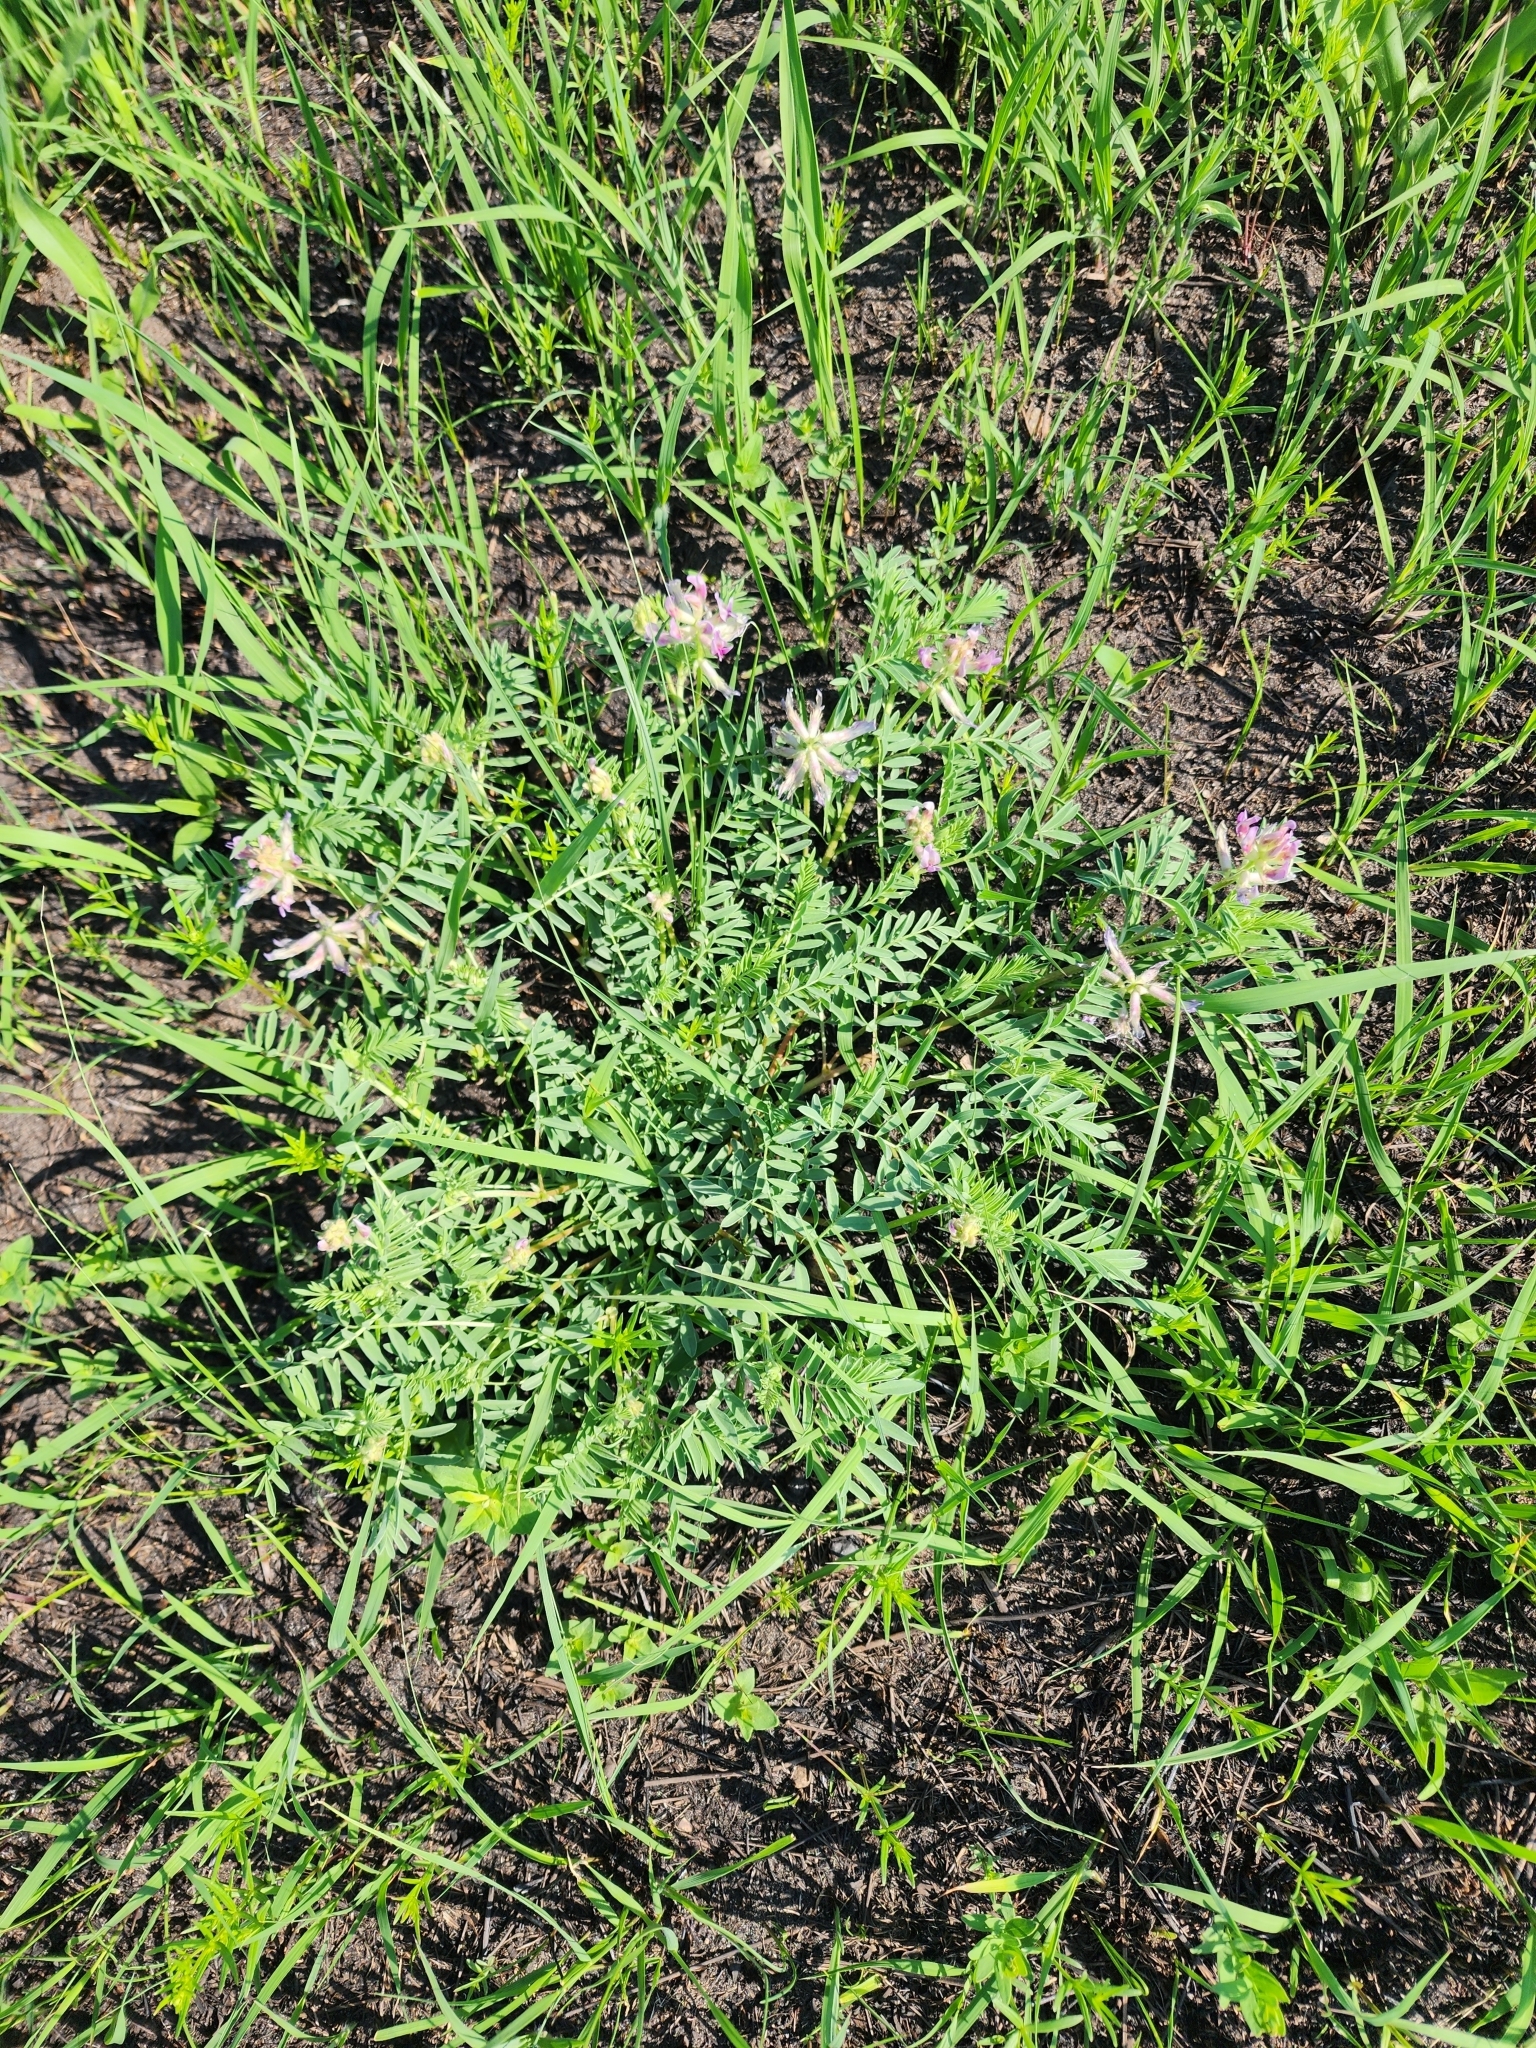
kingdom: Plantae
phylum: Tracheophyta
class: Magnoliopsida
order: Fabales
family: Fabaceae
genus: Astragalus
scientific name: Astragalus crassicarpus
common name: Ground-plum milk-vetch
